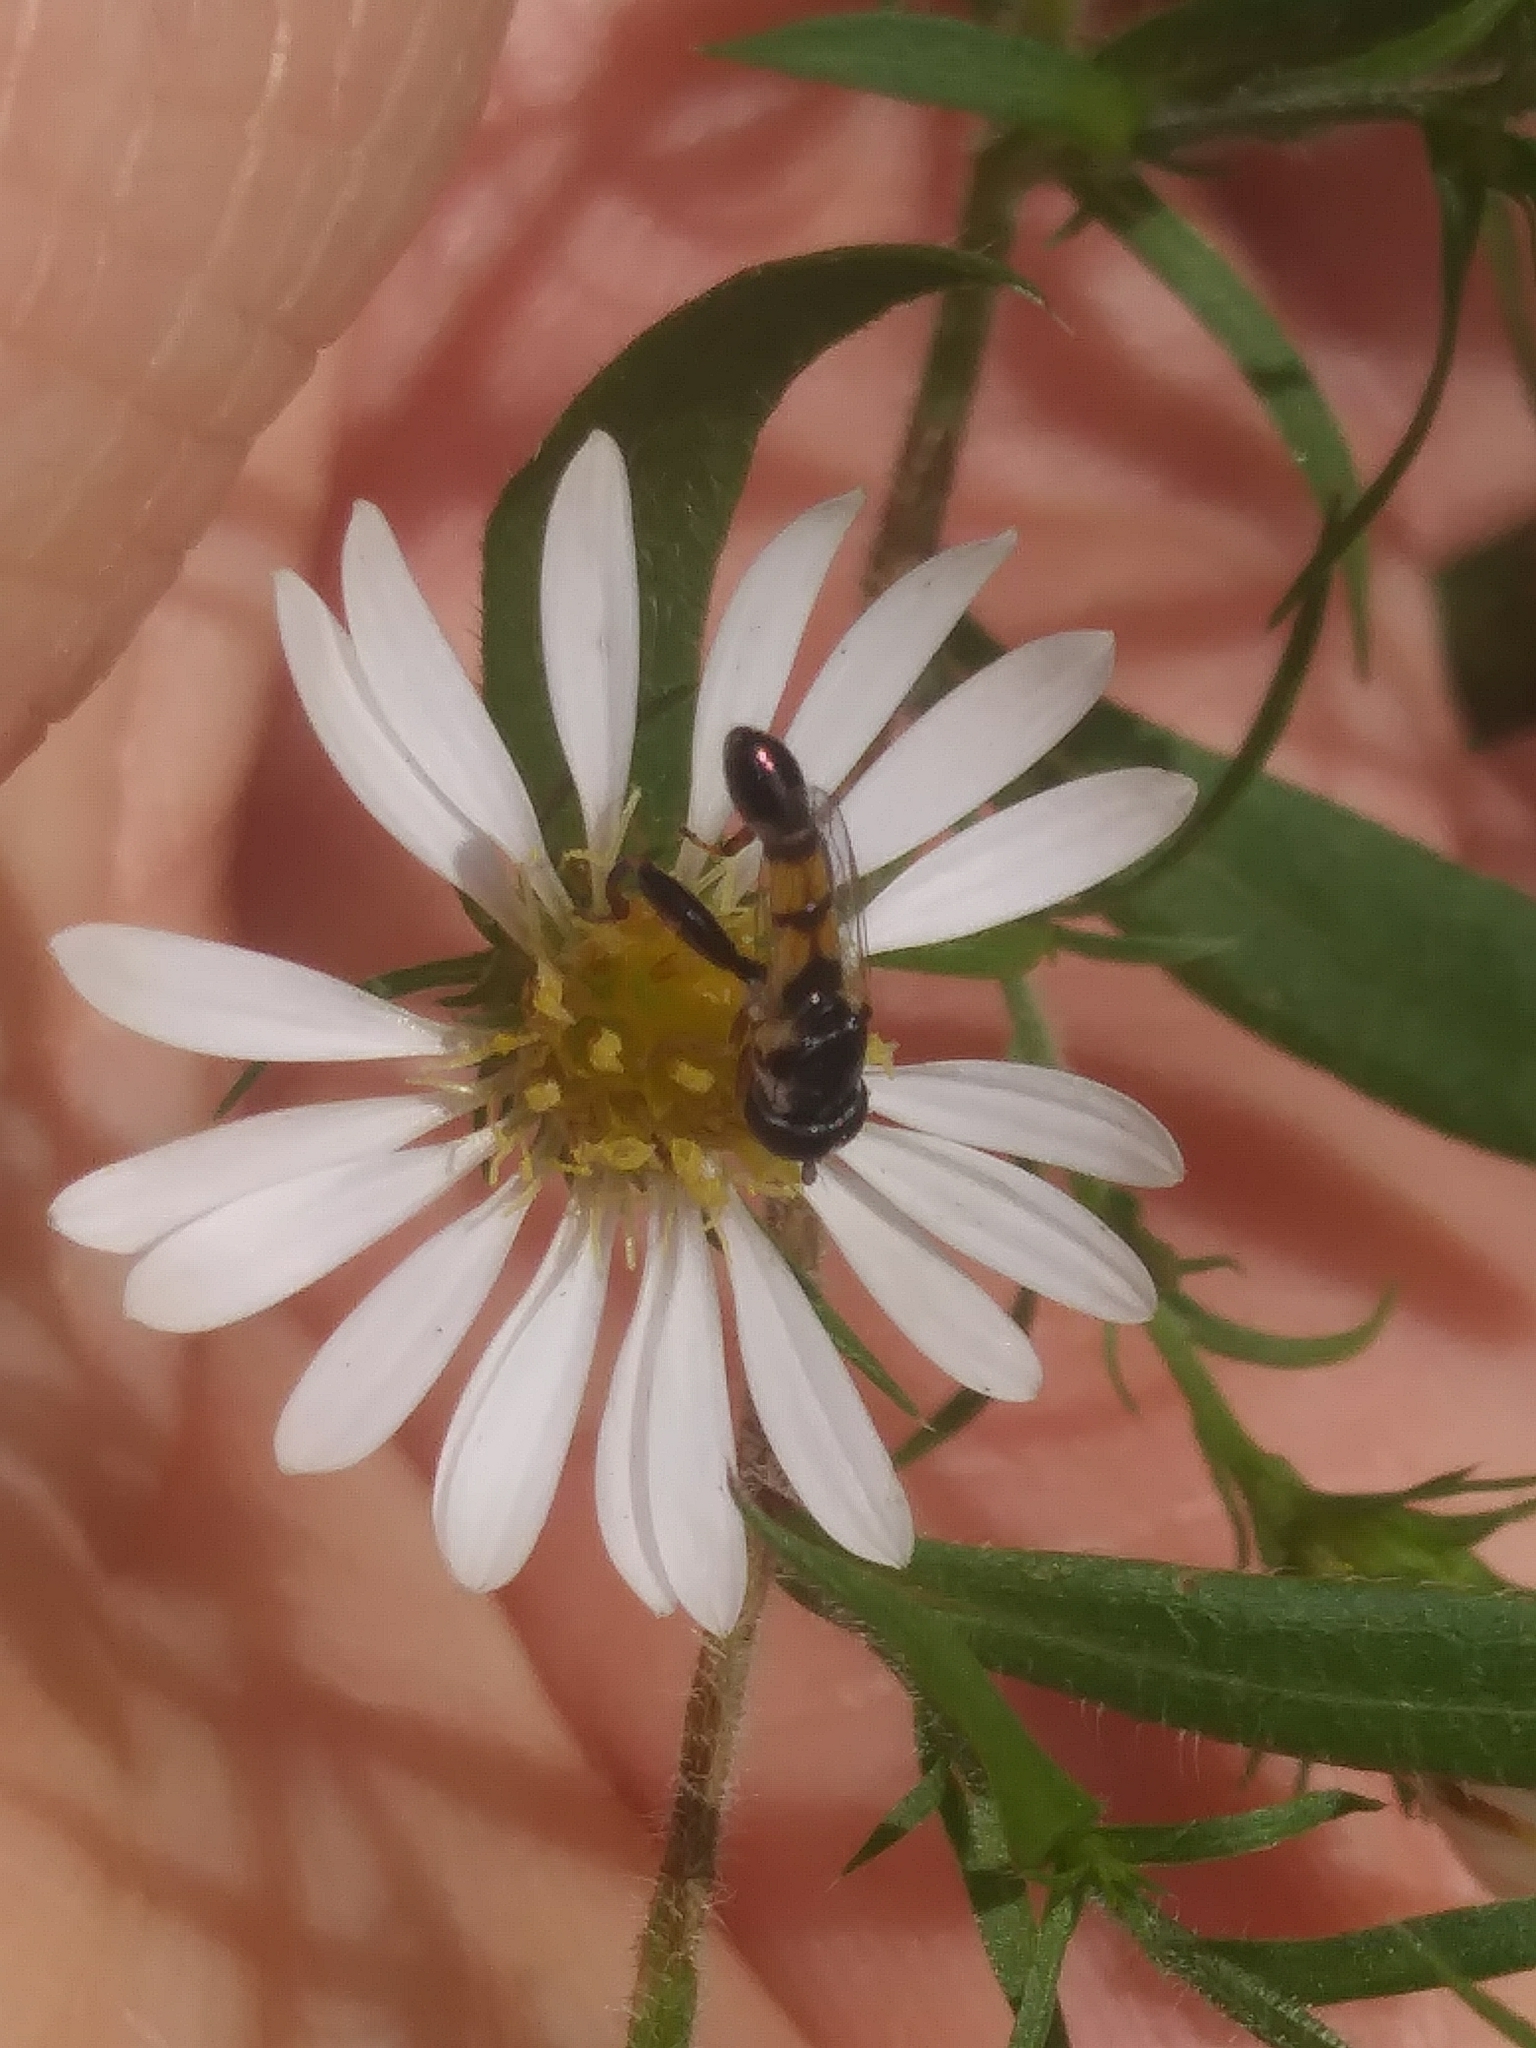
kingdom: Animalia
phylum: Arthropoda
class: Insecta
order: Diptera
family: Syrphidae
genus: Syritta
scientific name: Syritta flaviventris
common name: Syrphid fly
